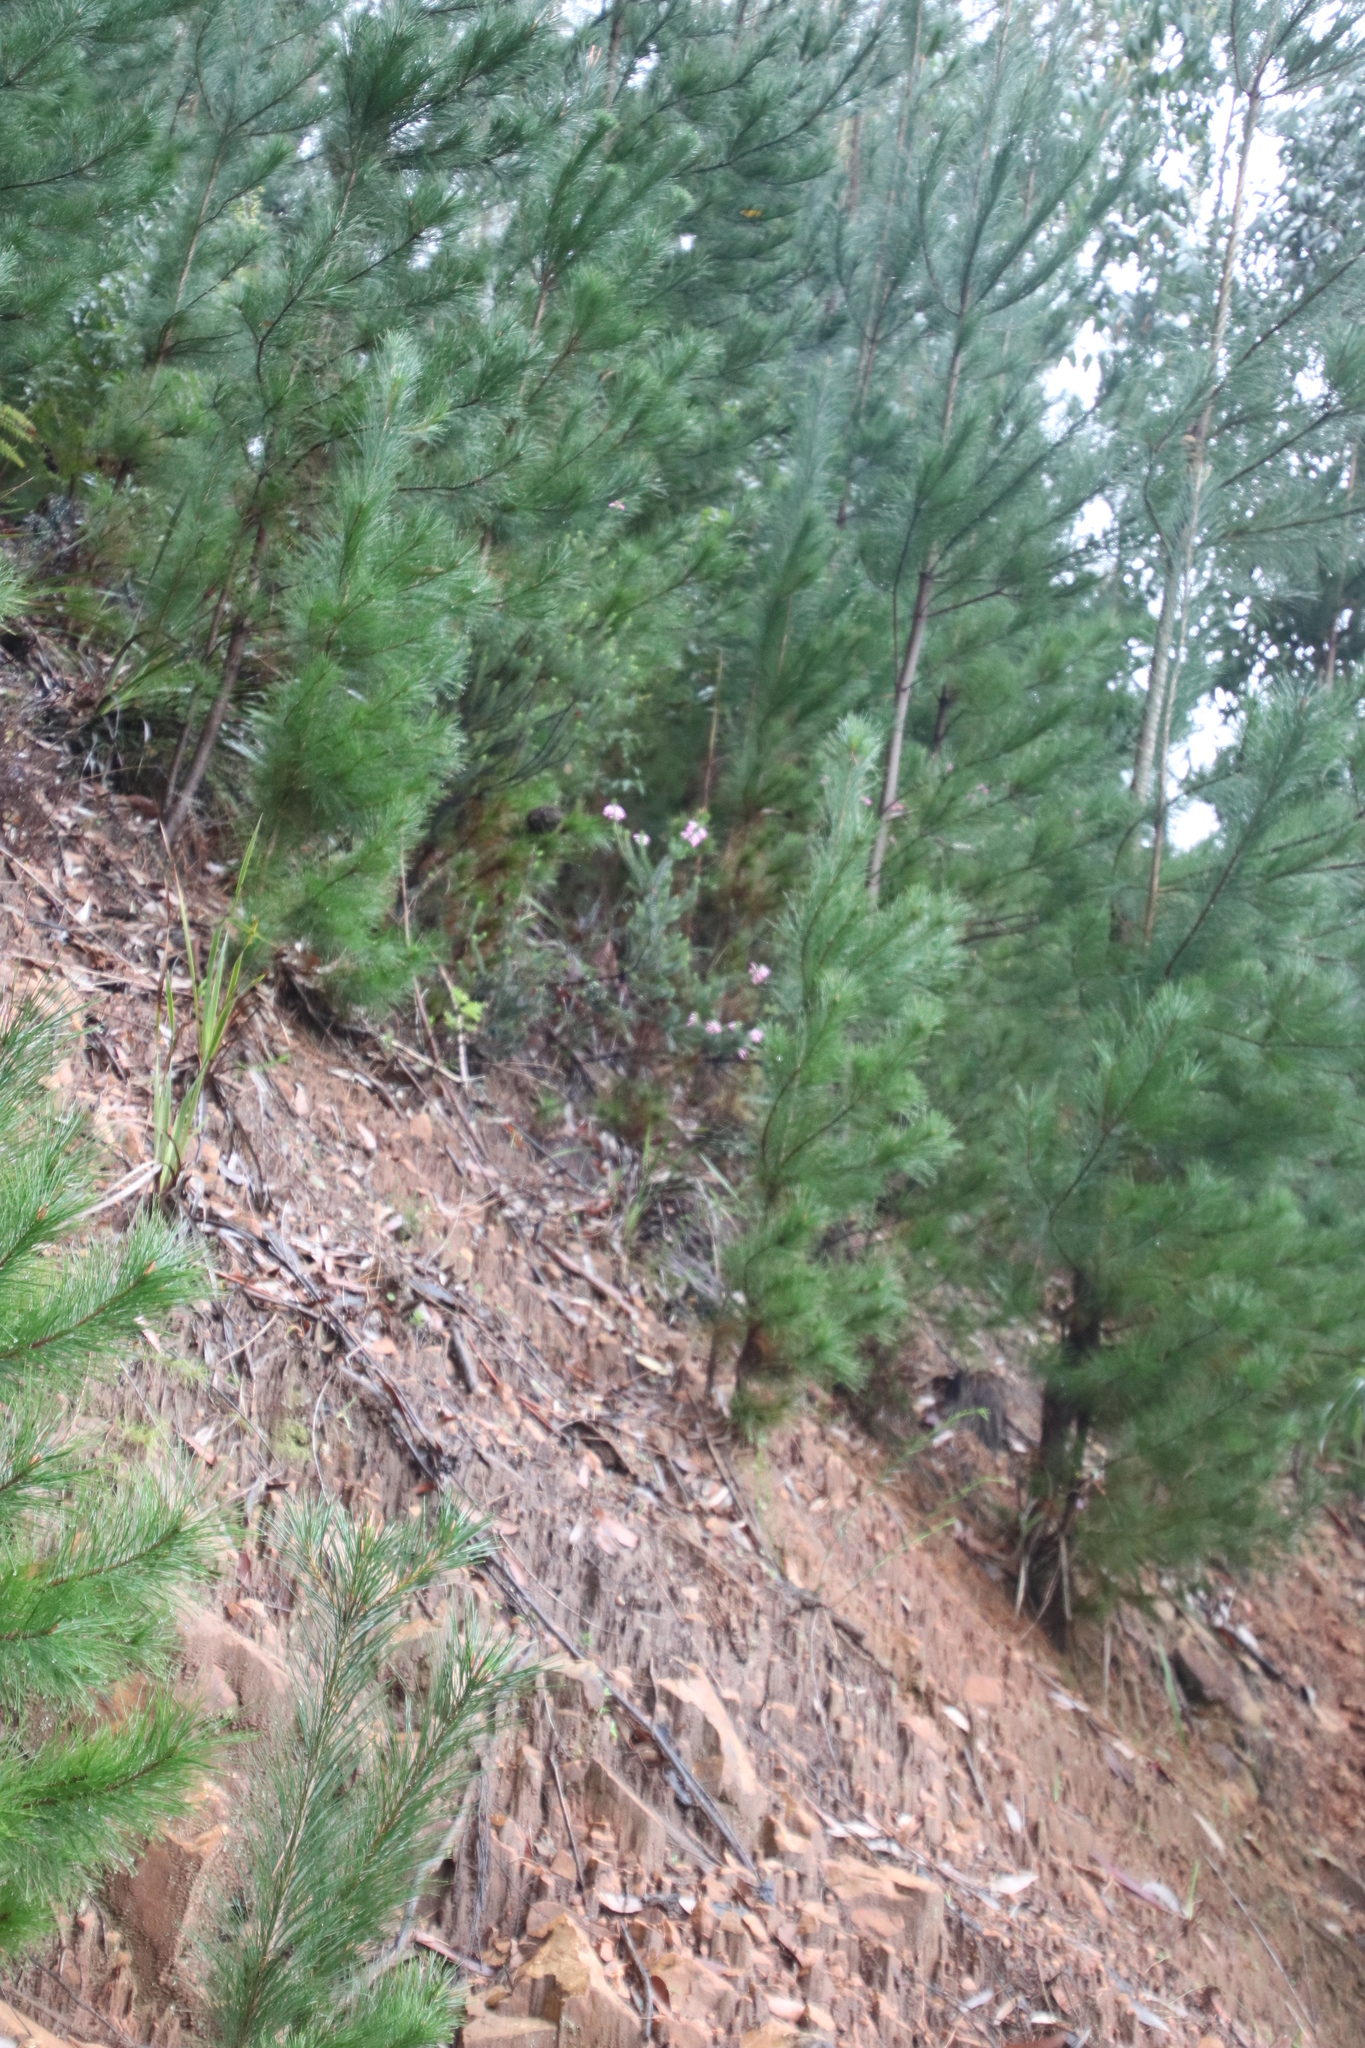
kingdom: Plantae
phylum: Tracheophyta
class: Magnoliopsida
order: Ericales
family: Ericaceae
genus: Erica
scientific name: Erica abietina
